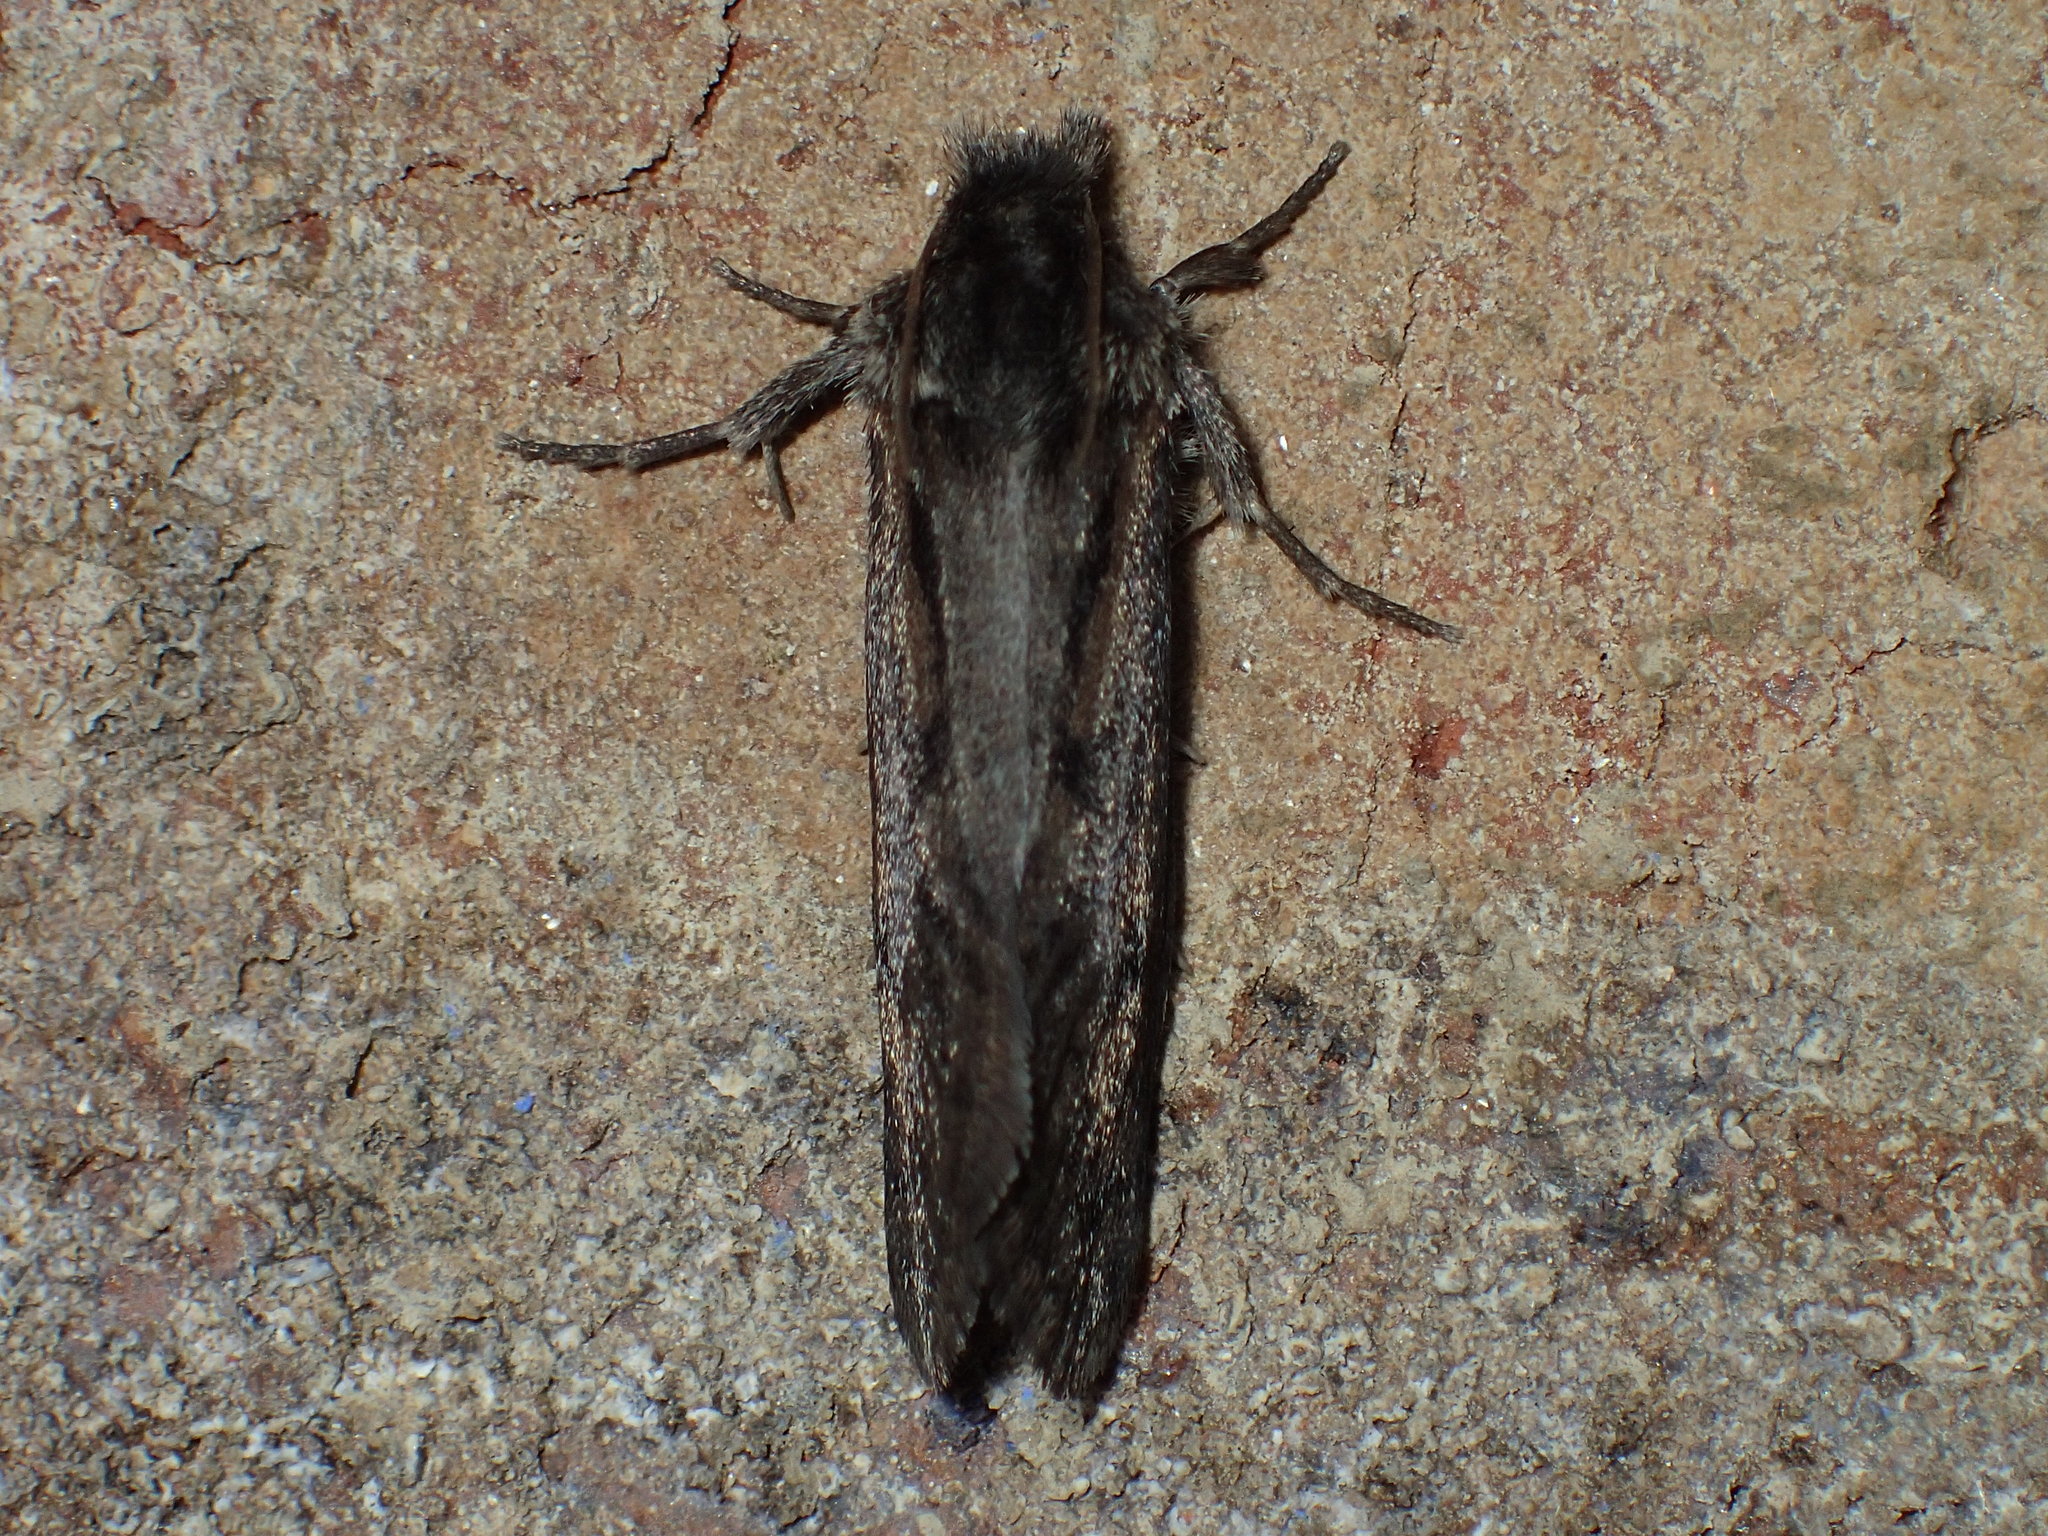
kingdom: Animalia
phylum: Arthropoda
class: Insecta
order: Lepidoptera
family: Tineidae
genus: Acrolophus
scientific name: Acrolophus popeanella
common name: Clemens' grass tubeworm moth
